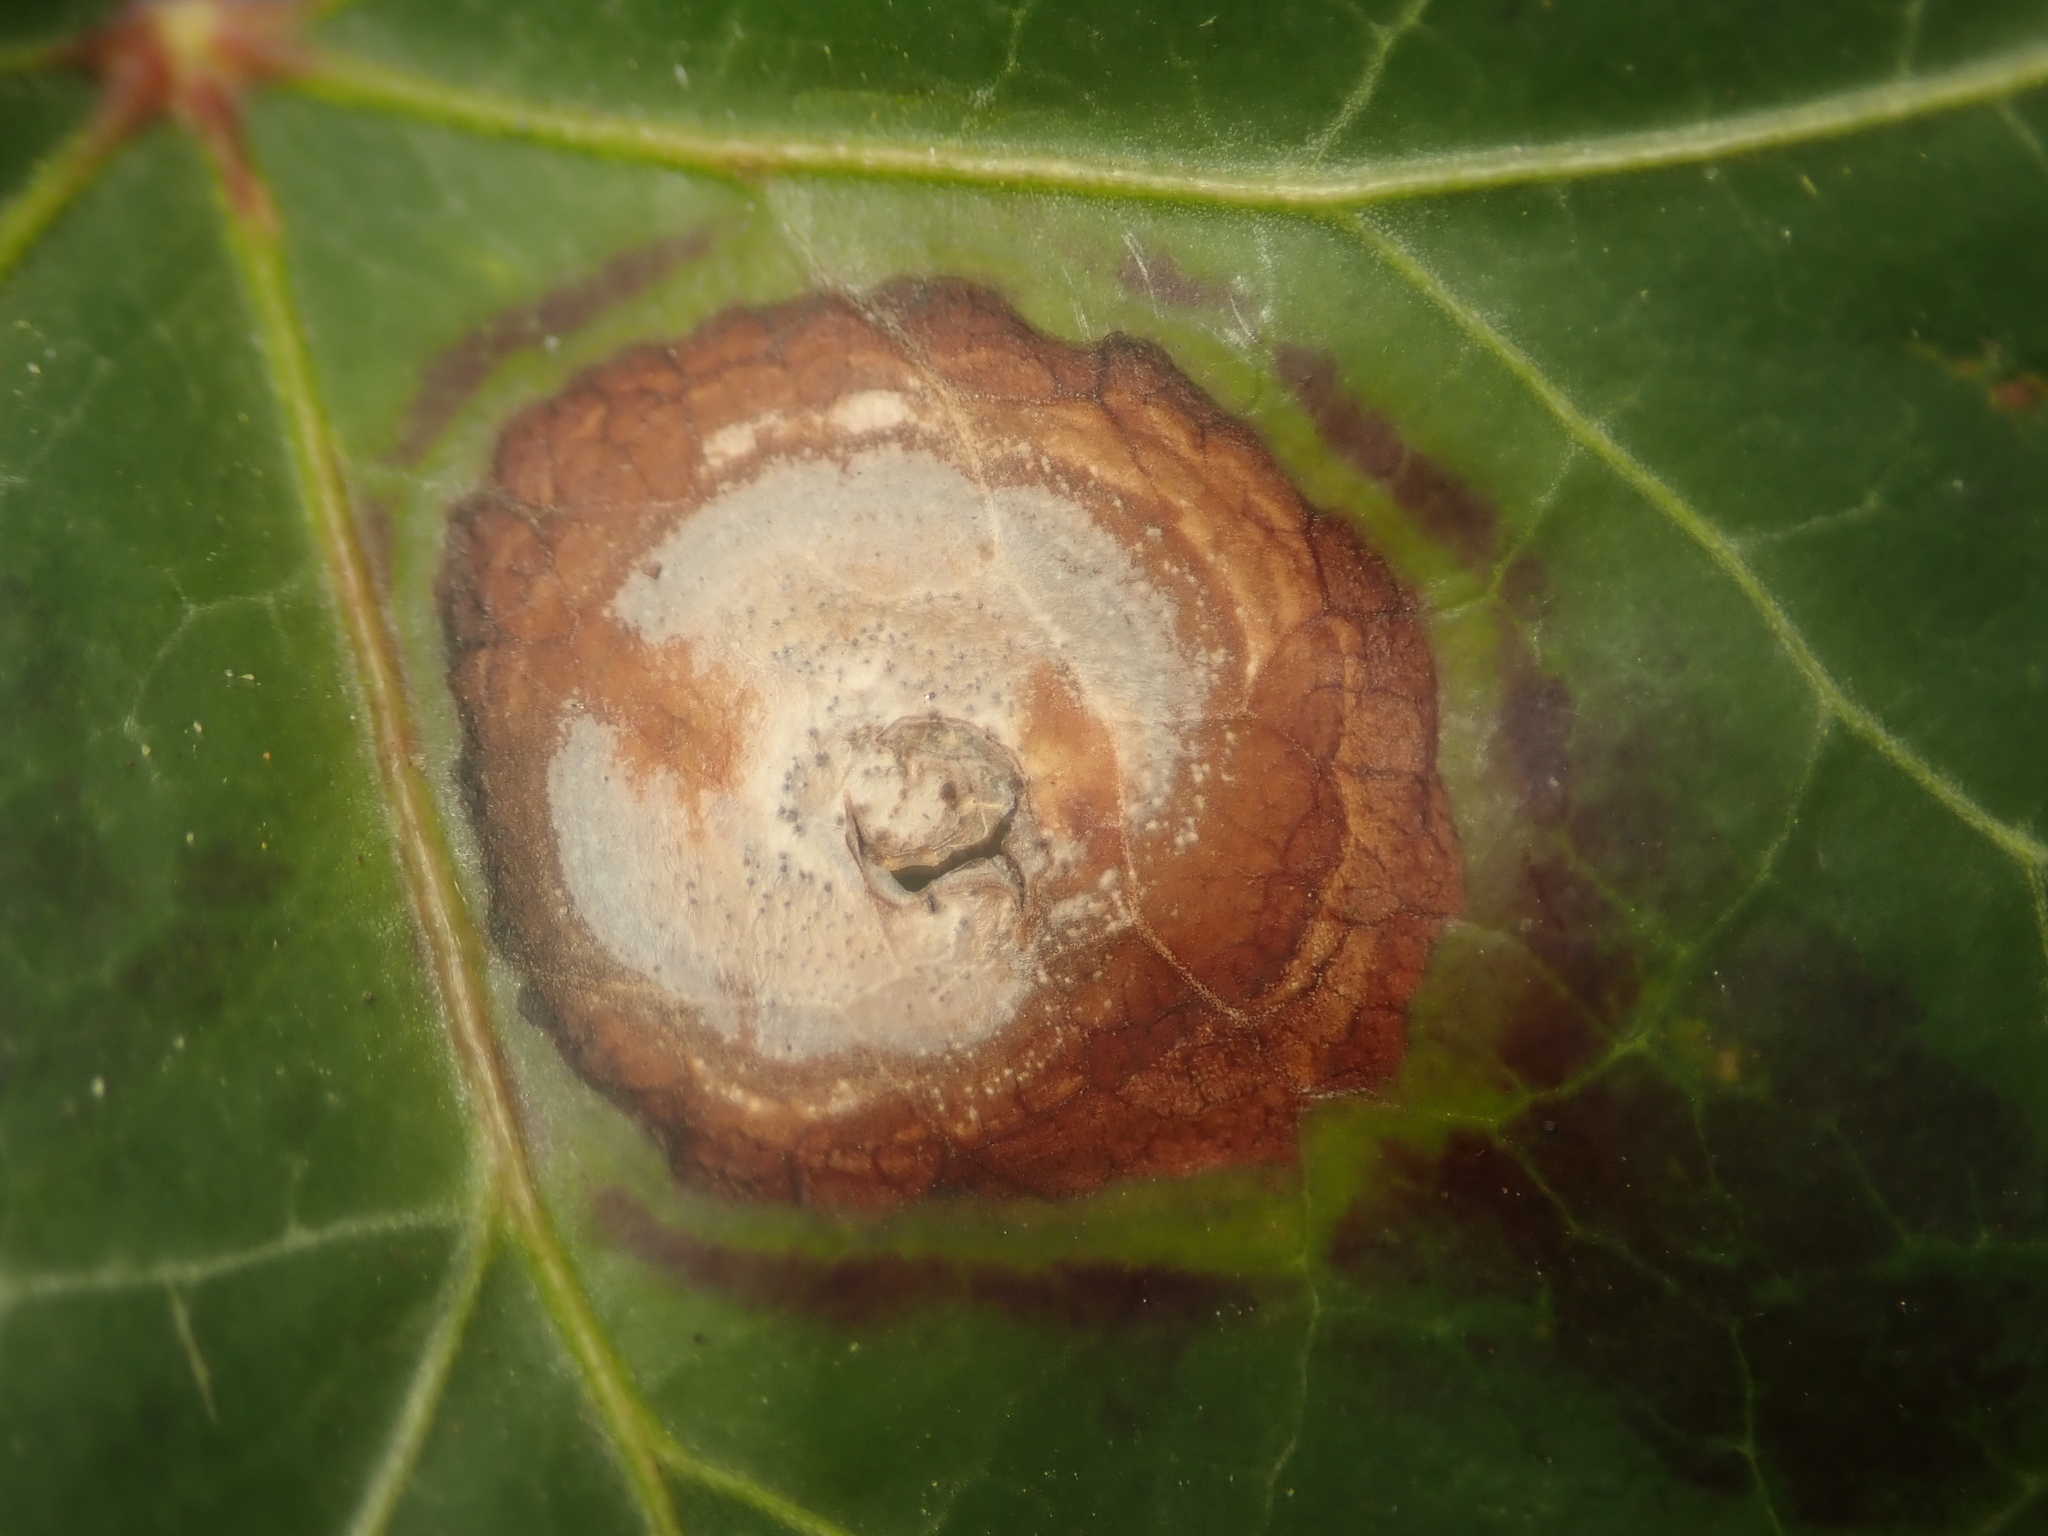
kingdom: Plantae
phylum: Tracheophyta
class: Magnoliopsida
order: Apiales
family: Araliaceae
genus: Hedera
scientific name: Hedera helix
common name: Ivy
